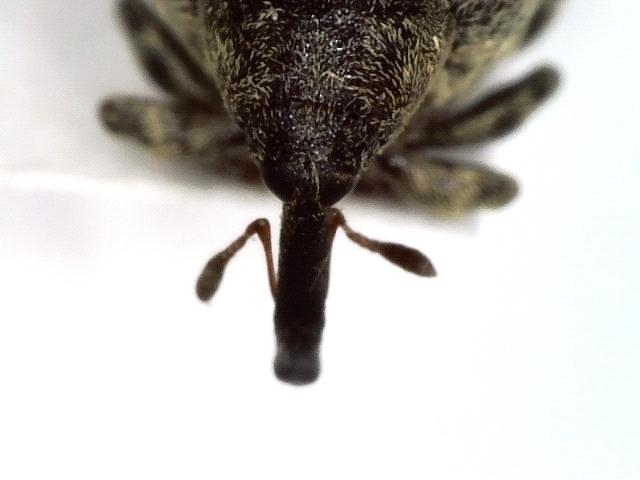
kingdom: Animalia
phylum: Arthropoda
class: Insecta
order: Coleoptera
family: Curculionidae
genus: Cionus
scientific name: Cionus montanus
